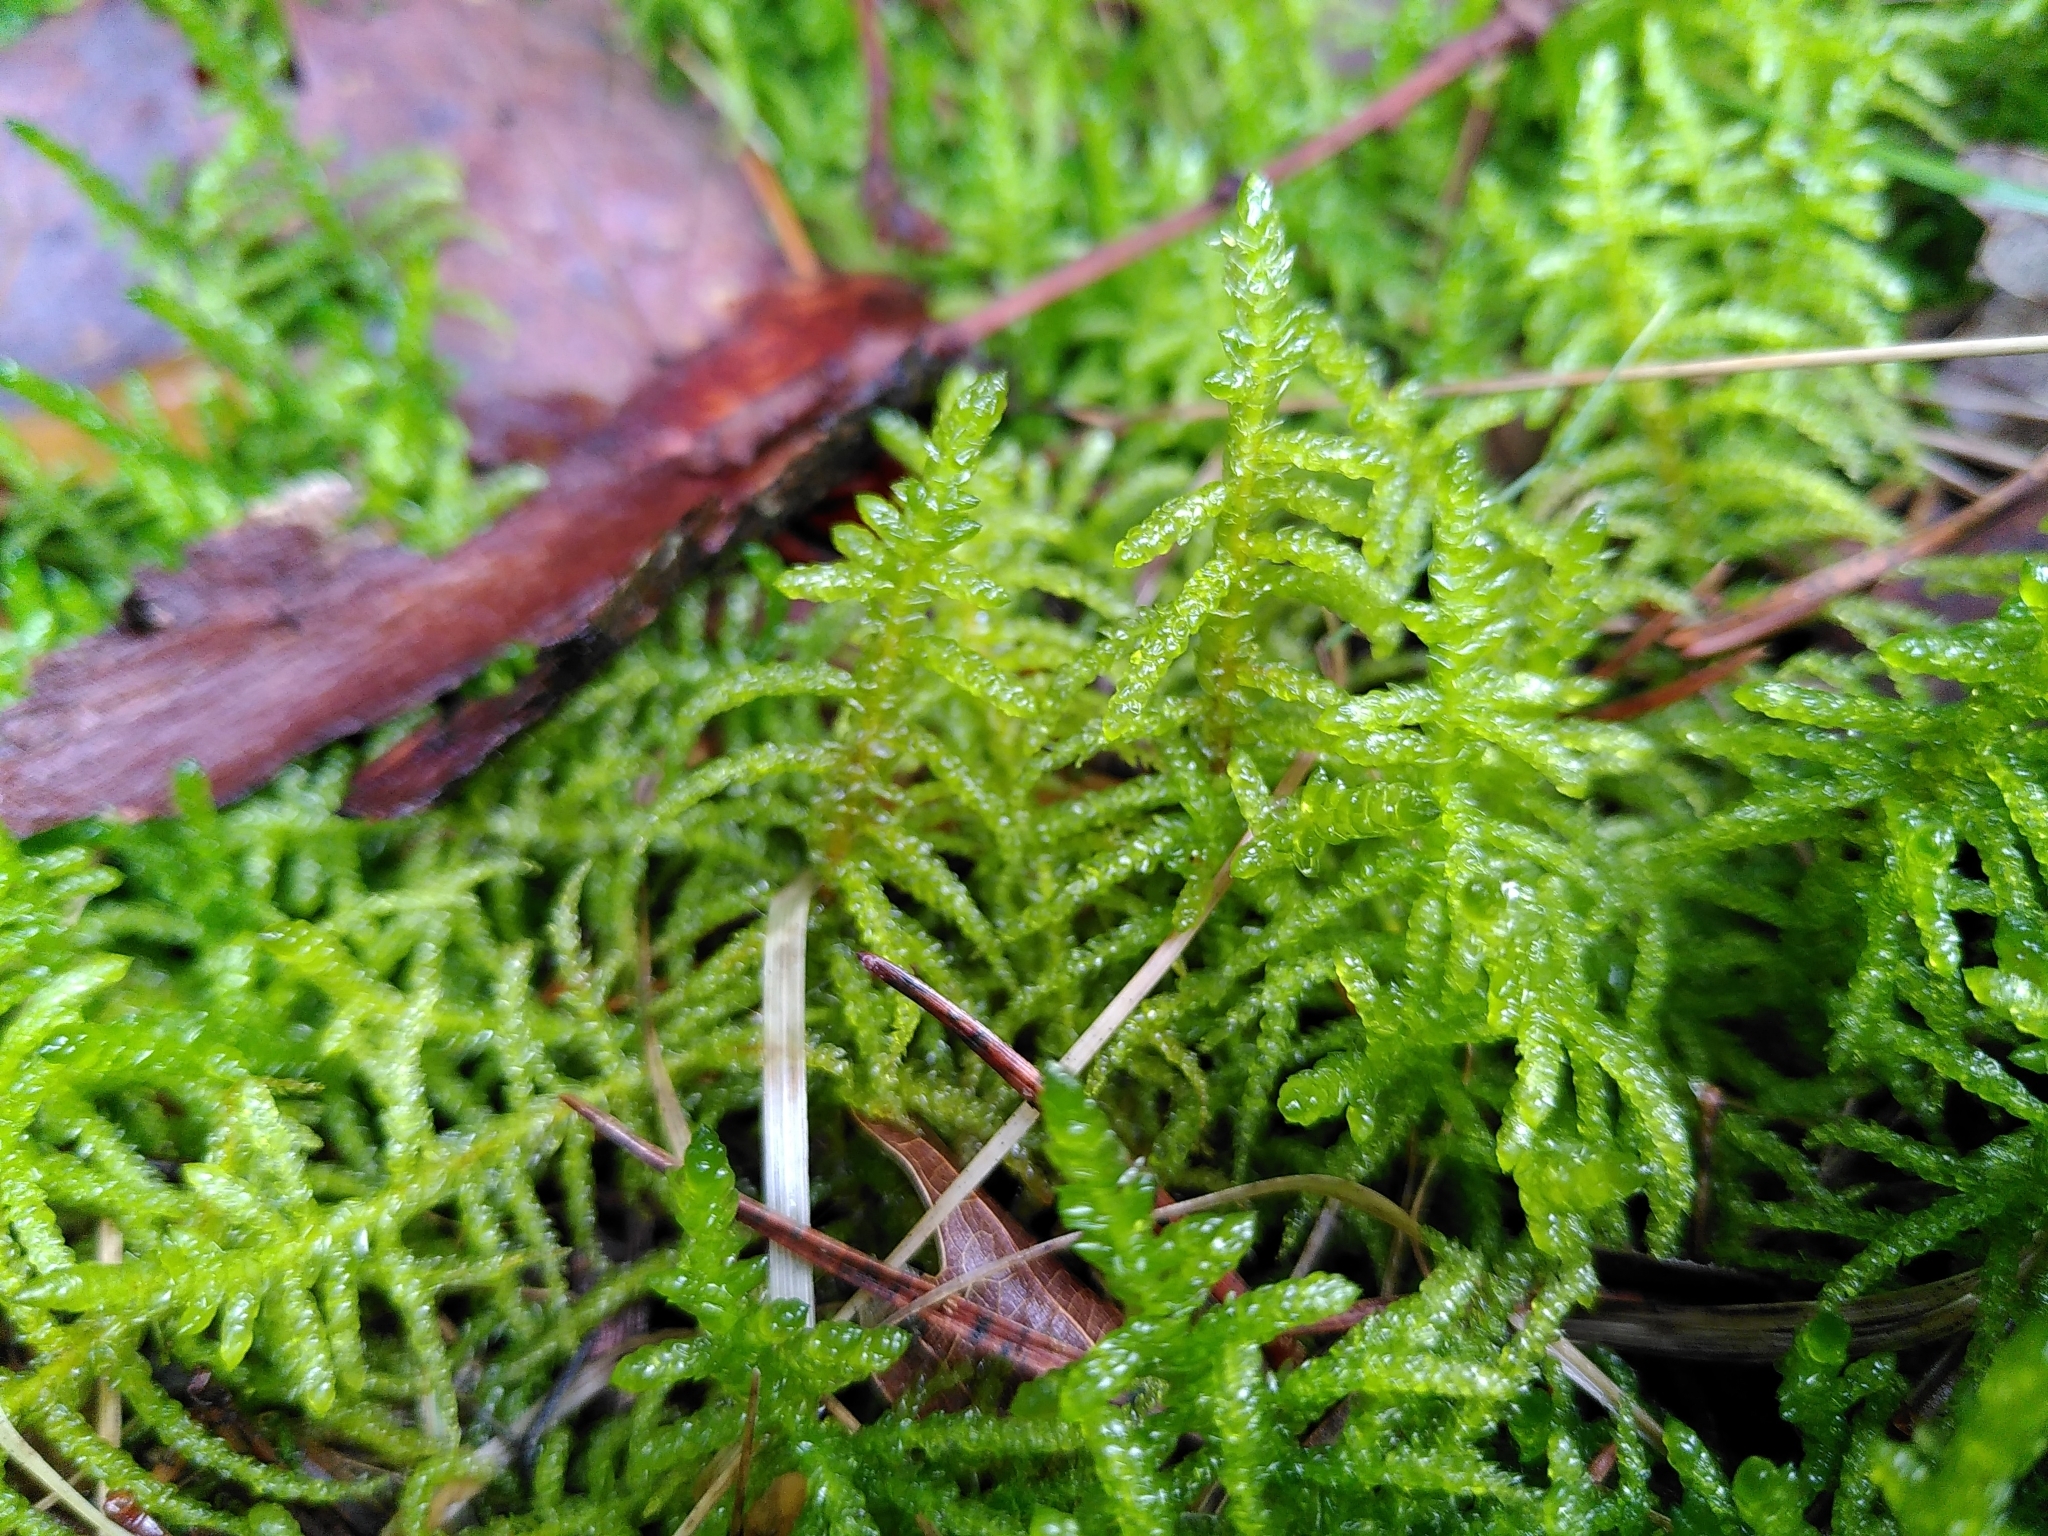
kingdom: Plantae
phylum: Bryophyta
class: Bryopsida
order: Hypnales
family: Brachytheciaceae
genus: Pseudoscleropodium
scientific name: Pseudoscleropodium purum
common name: Neat feather-moss
